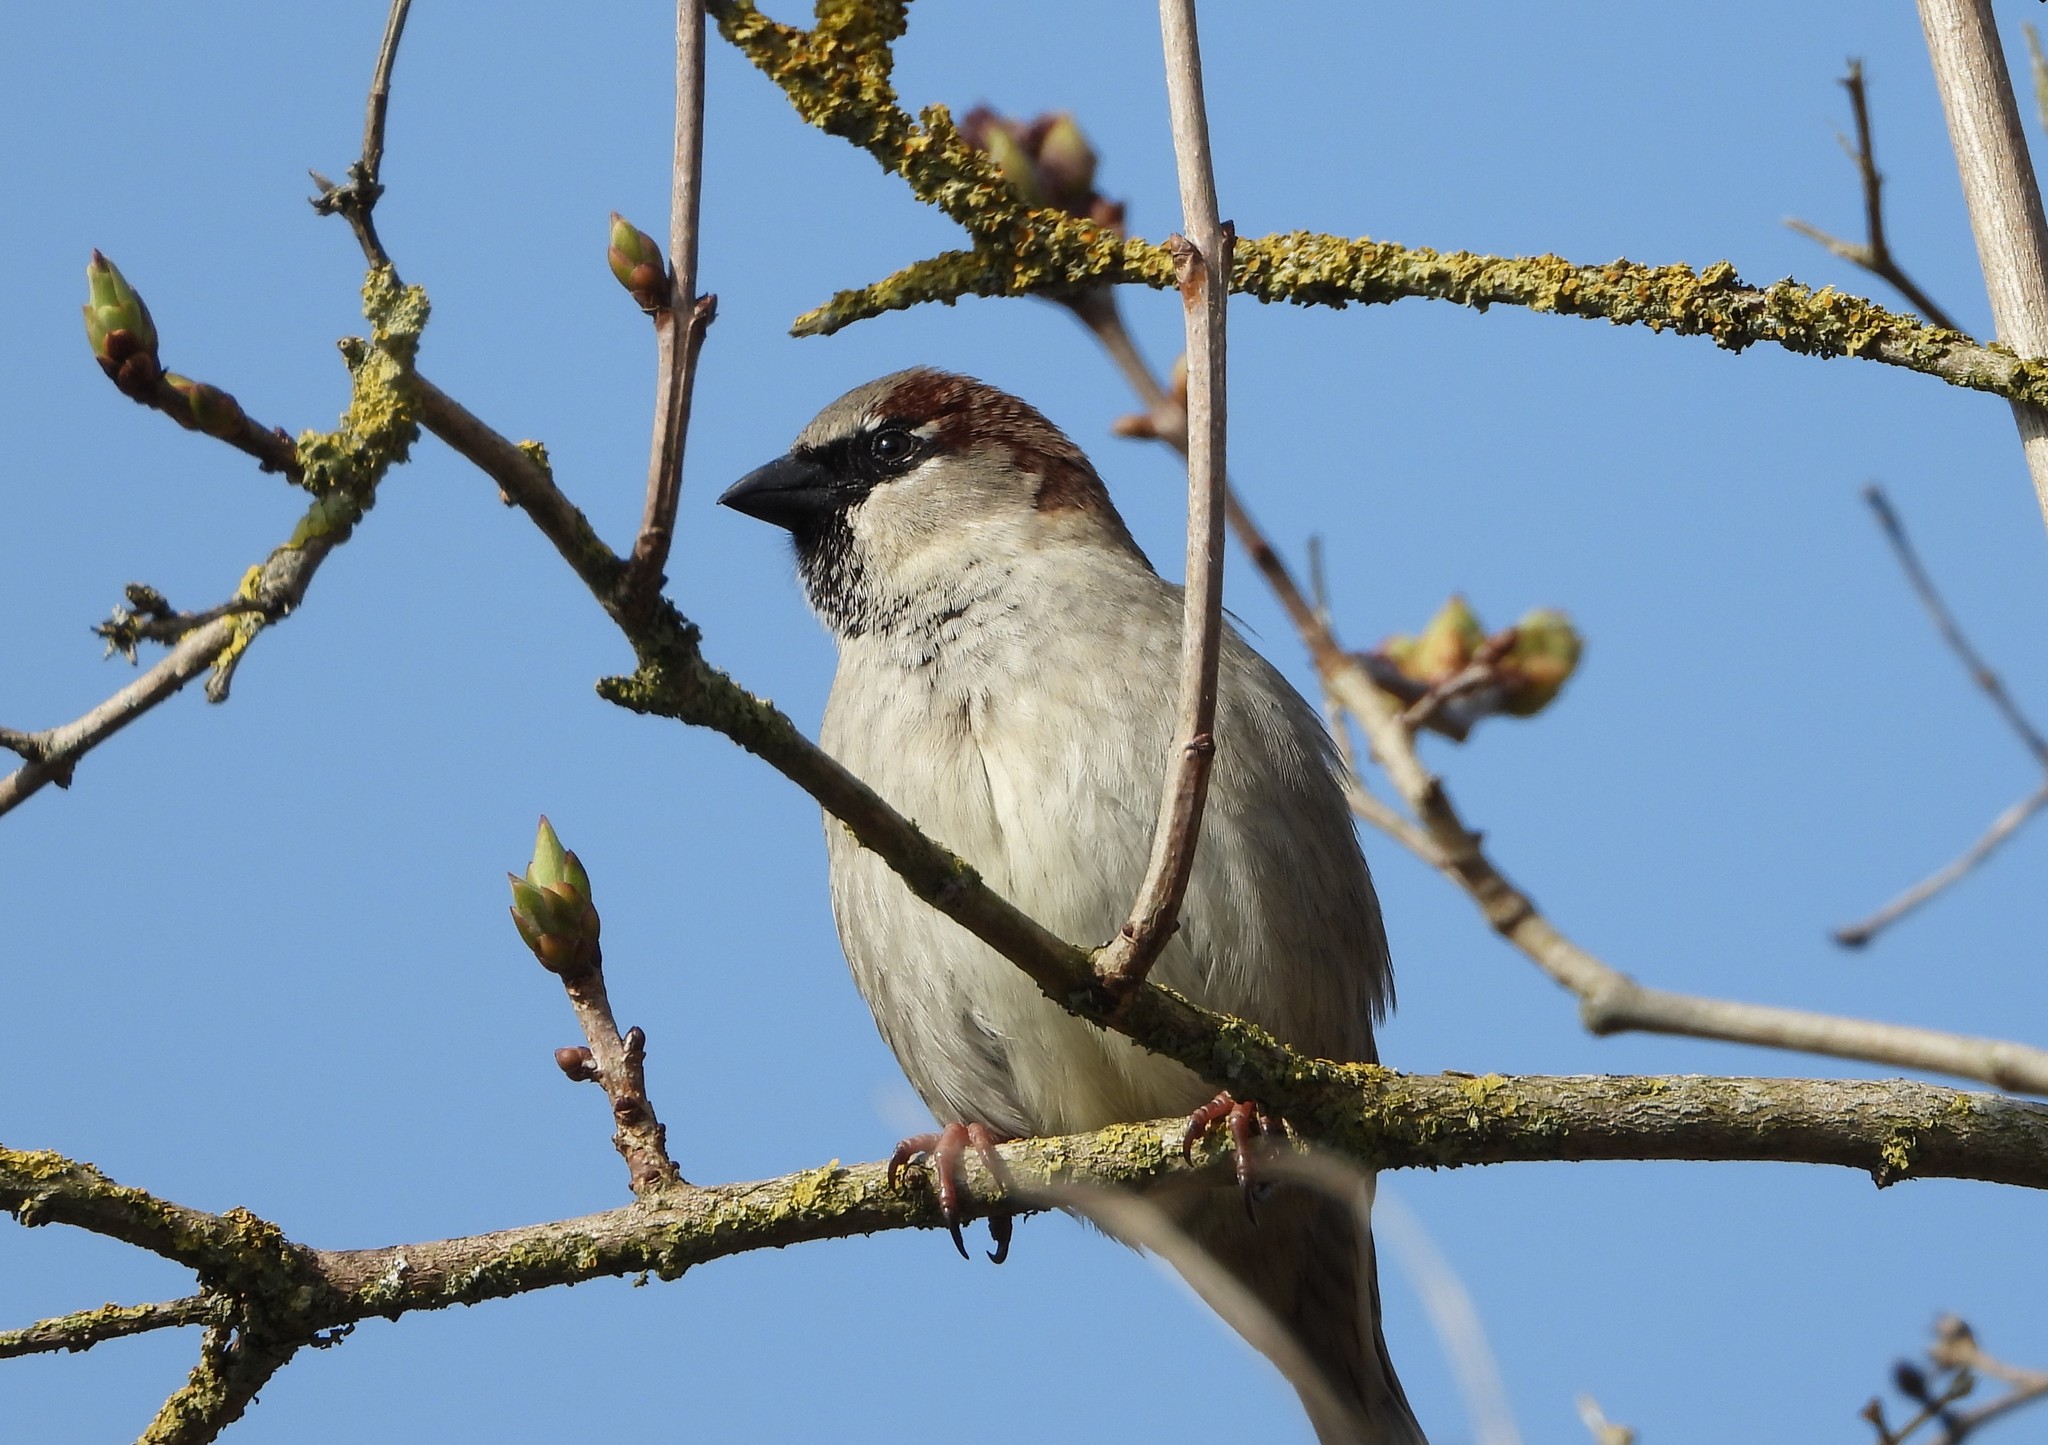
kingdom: Animalia
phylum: Chordata
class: Aves
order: Passeriformes
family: Passeridae
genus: Passer
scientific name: Passer domesticus
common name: House sparrow
